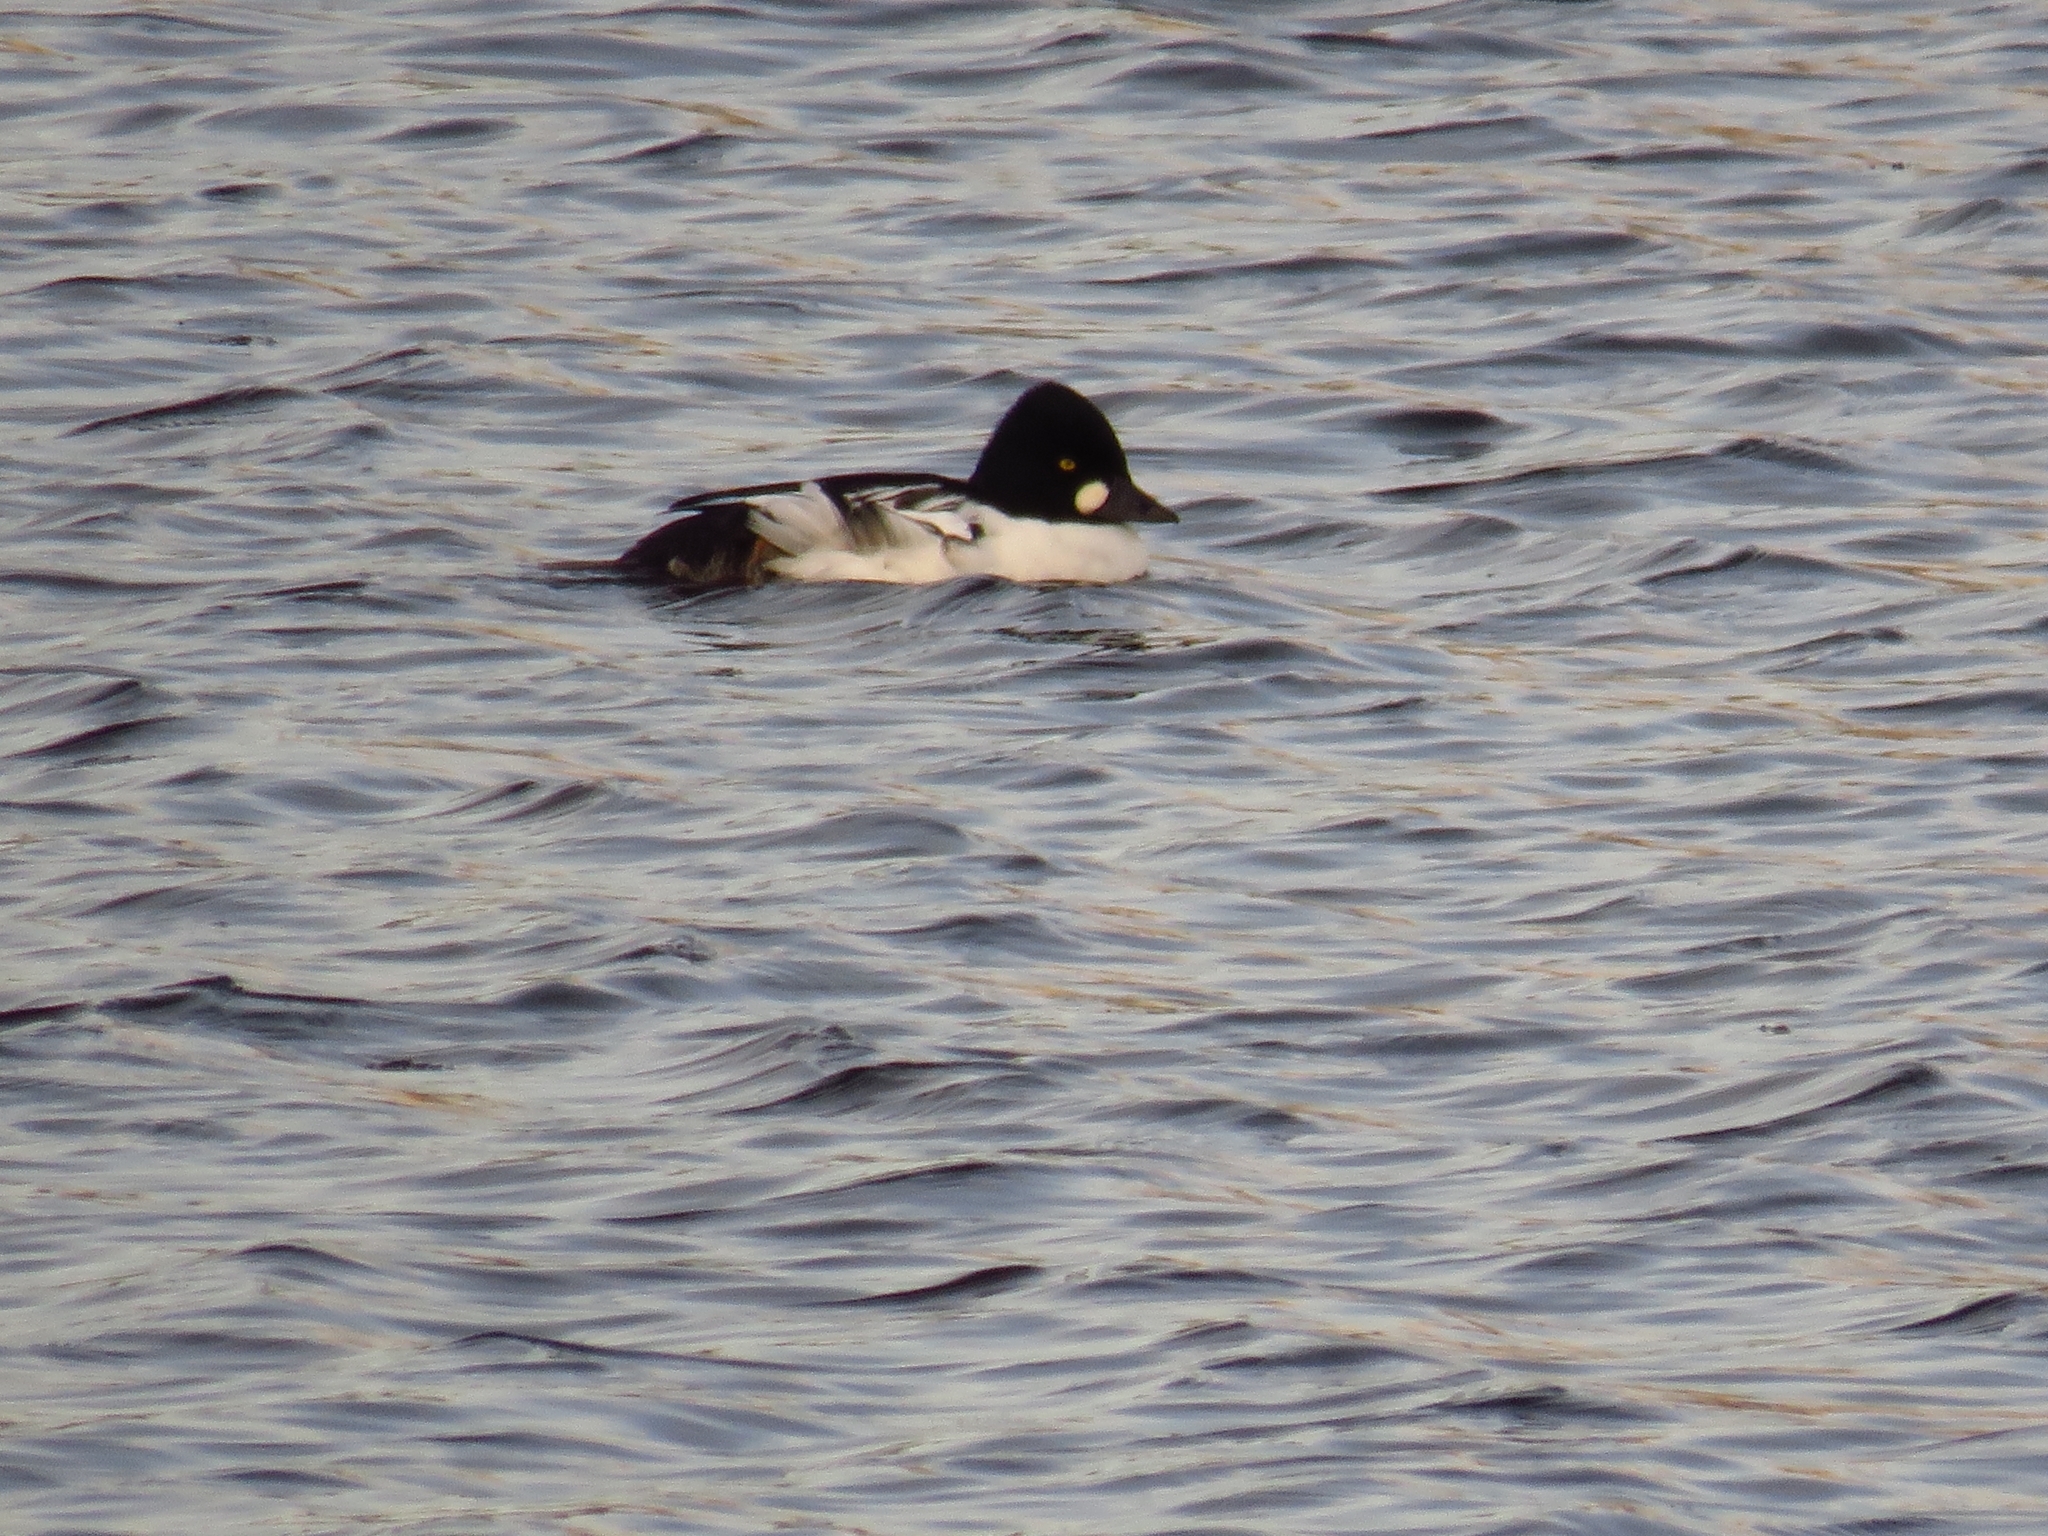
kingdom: Animalia
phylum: Chordata
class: Aves
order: Anseriformes
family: Anatidae
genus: Bucephala
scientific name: Bucephala clangula
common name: Common goldeneye
